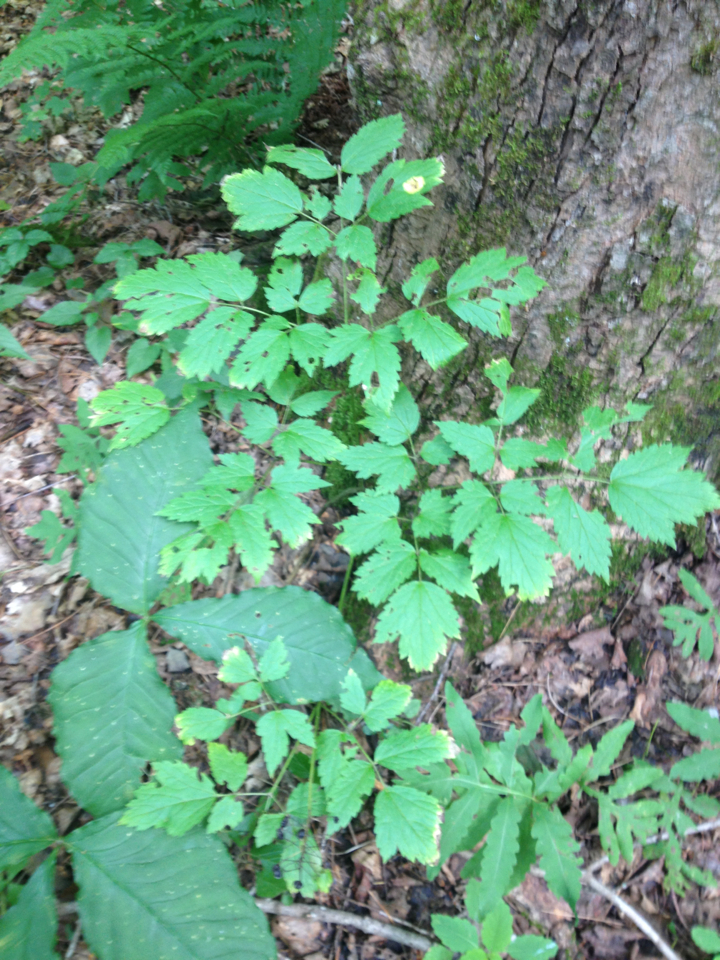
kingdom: Plantae
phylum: Tracheophyta
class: Magnoliopsida
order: Ranunculales
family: Ranunculaceae
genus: Actaea
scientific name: Actaea rubra
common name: Red baneberry
